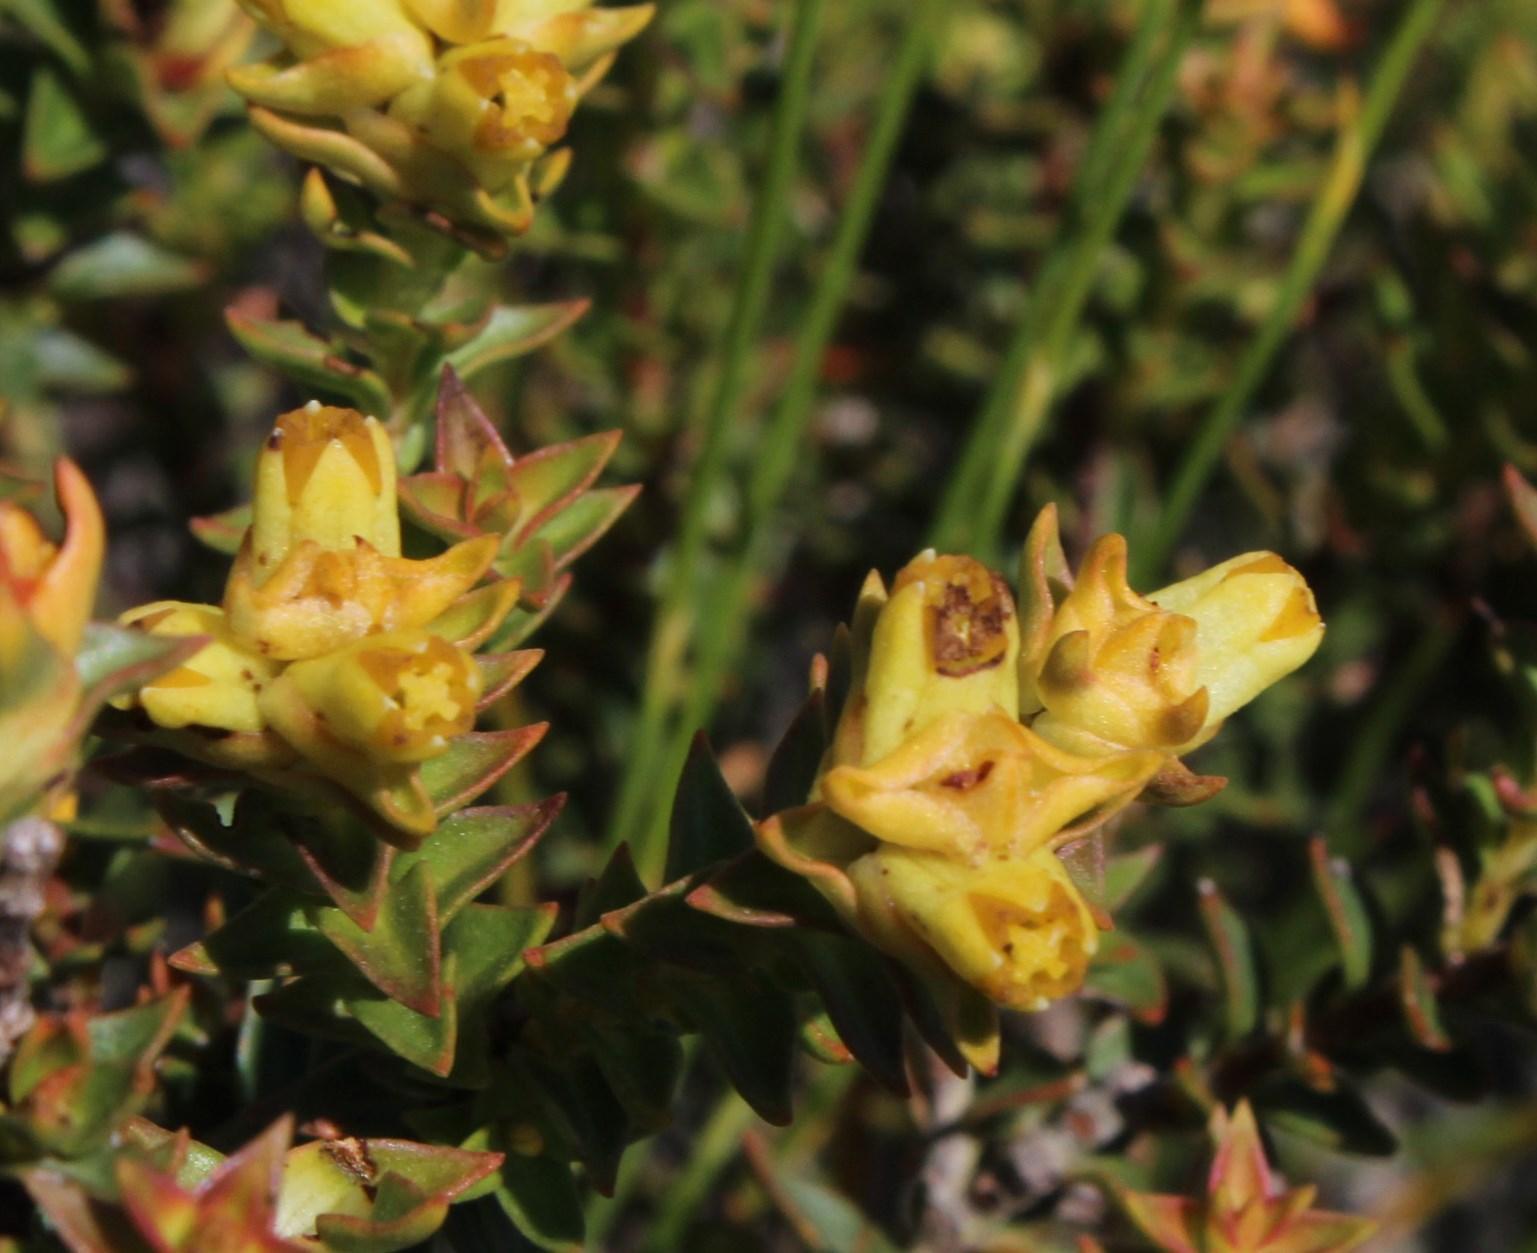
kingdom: Plantae
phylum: Tracheophyta
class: Magnoliopsida
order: Myrtales
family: Penaeaceae
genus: Penaea
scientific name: Penaea mucronata
